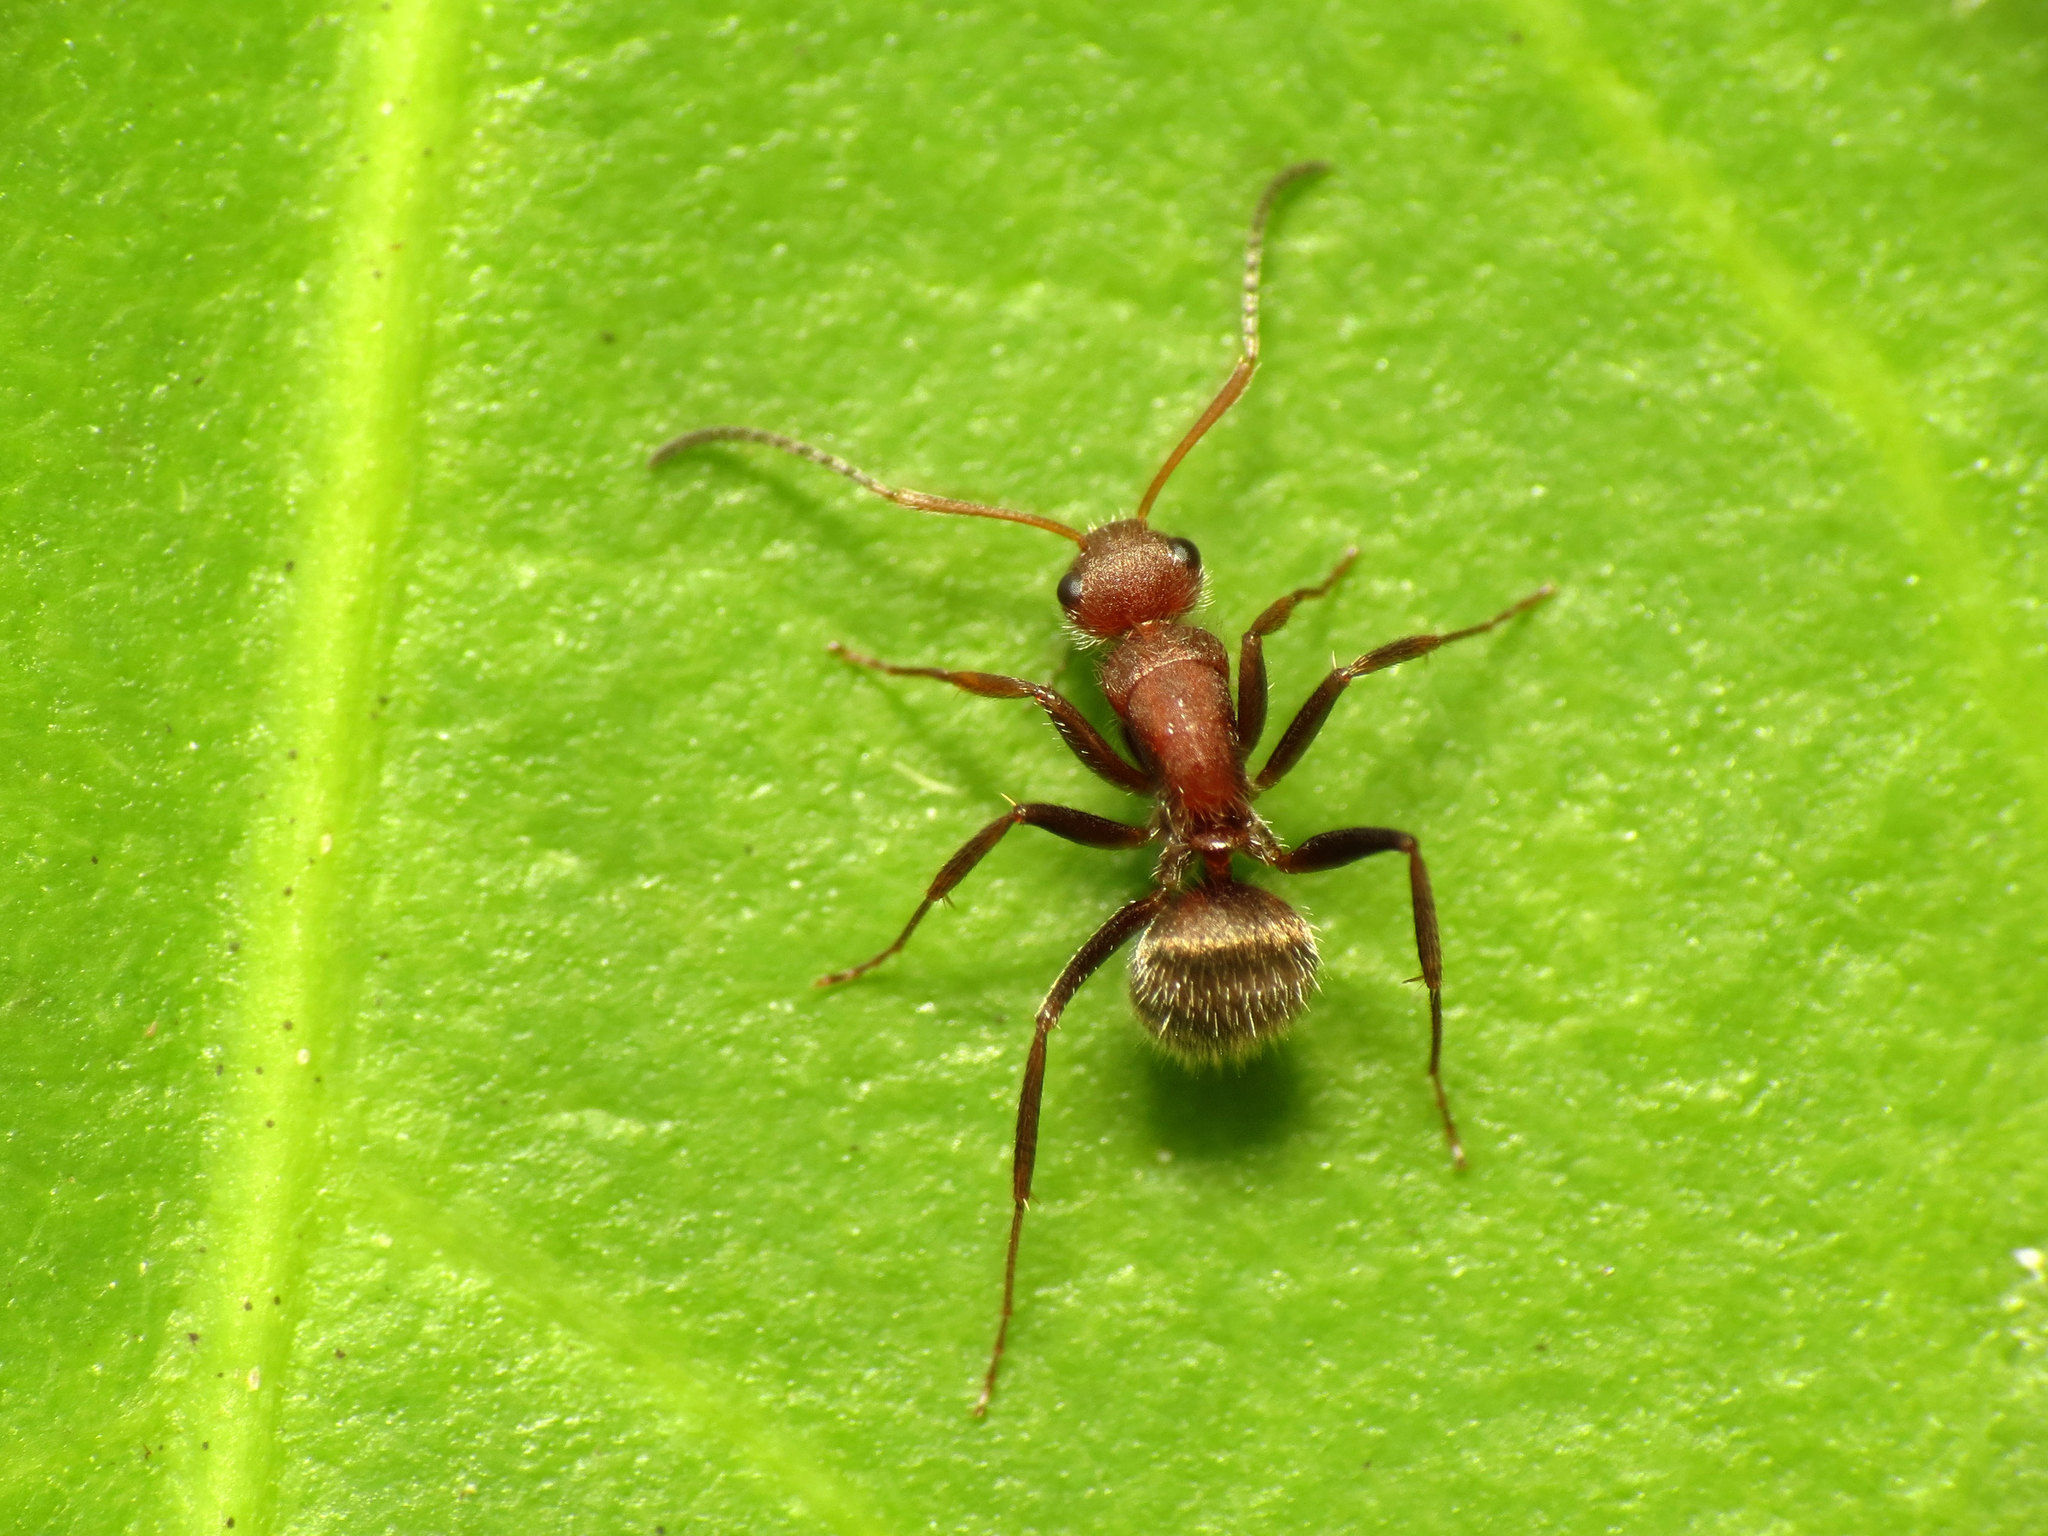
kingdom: Animalia
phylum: Arthropoda
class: Insecta
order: Hymenoptera
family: Formicidae
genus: Camponotus
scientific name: Camponotus planatus
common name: Compact carpenter ant
